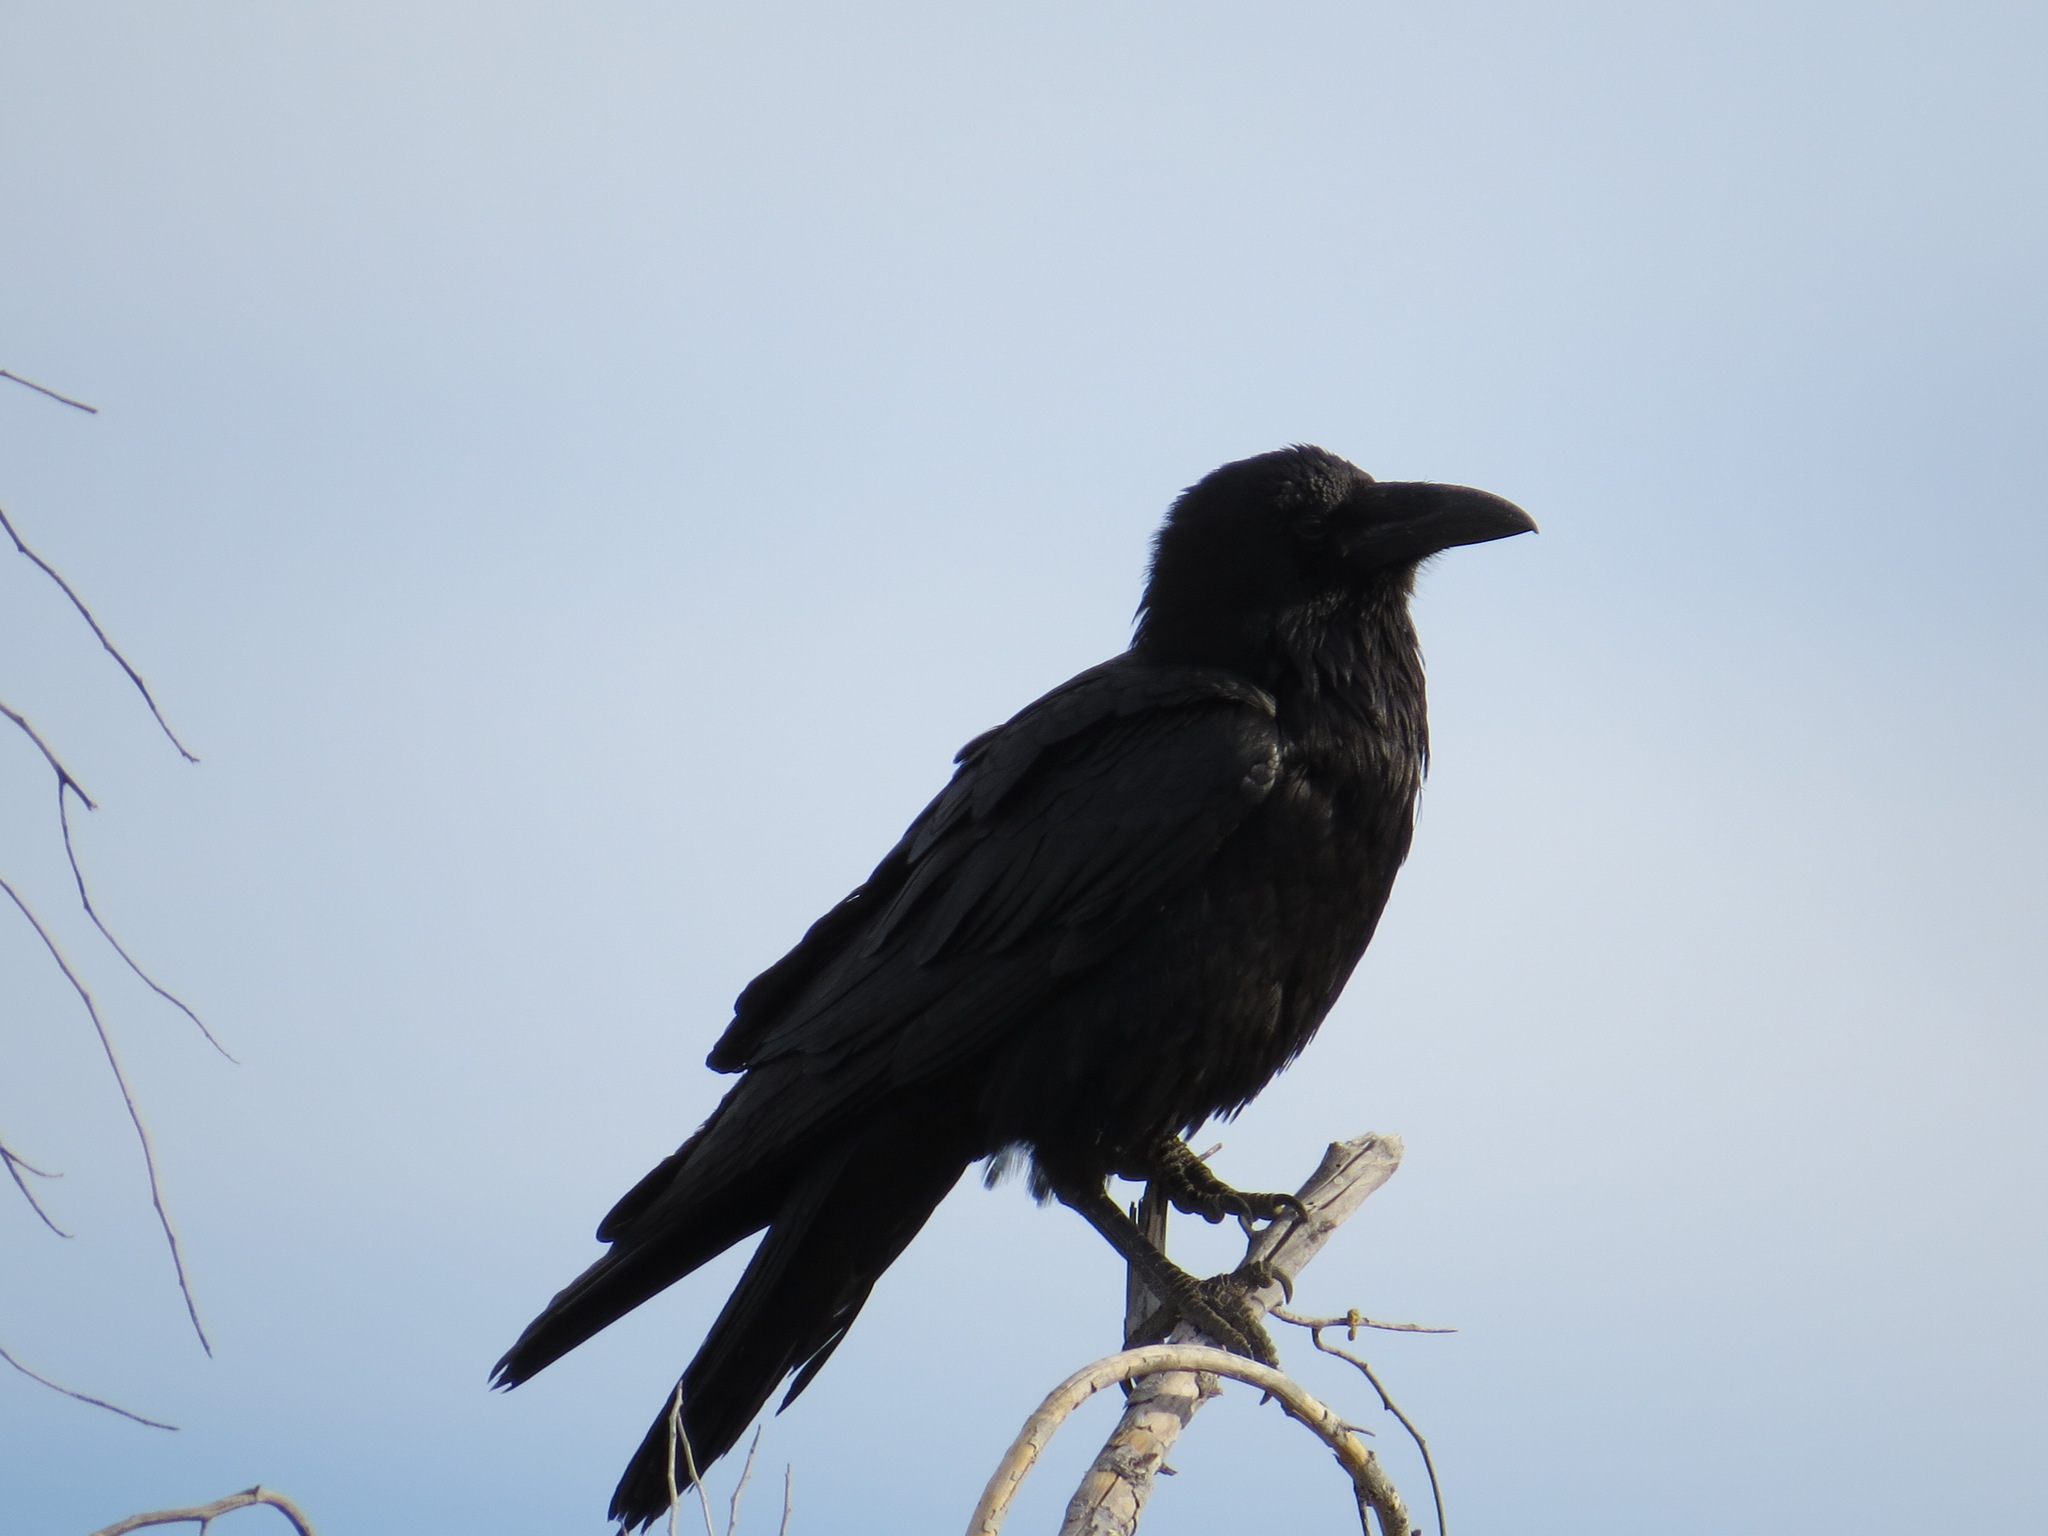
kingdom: Animalia
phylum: Chordata
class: Aves
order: Passeriformes
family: Corvidae
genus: Corvus
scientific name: Corvus corax
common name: Common raven
